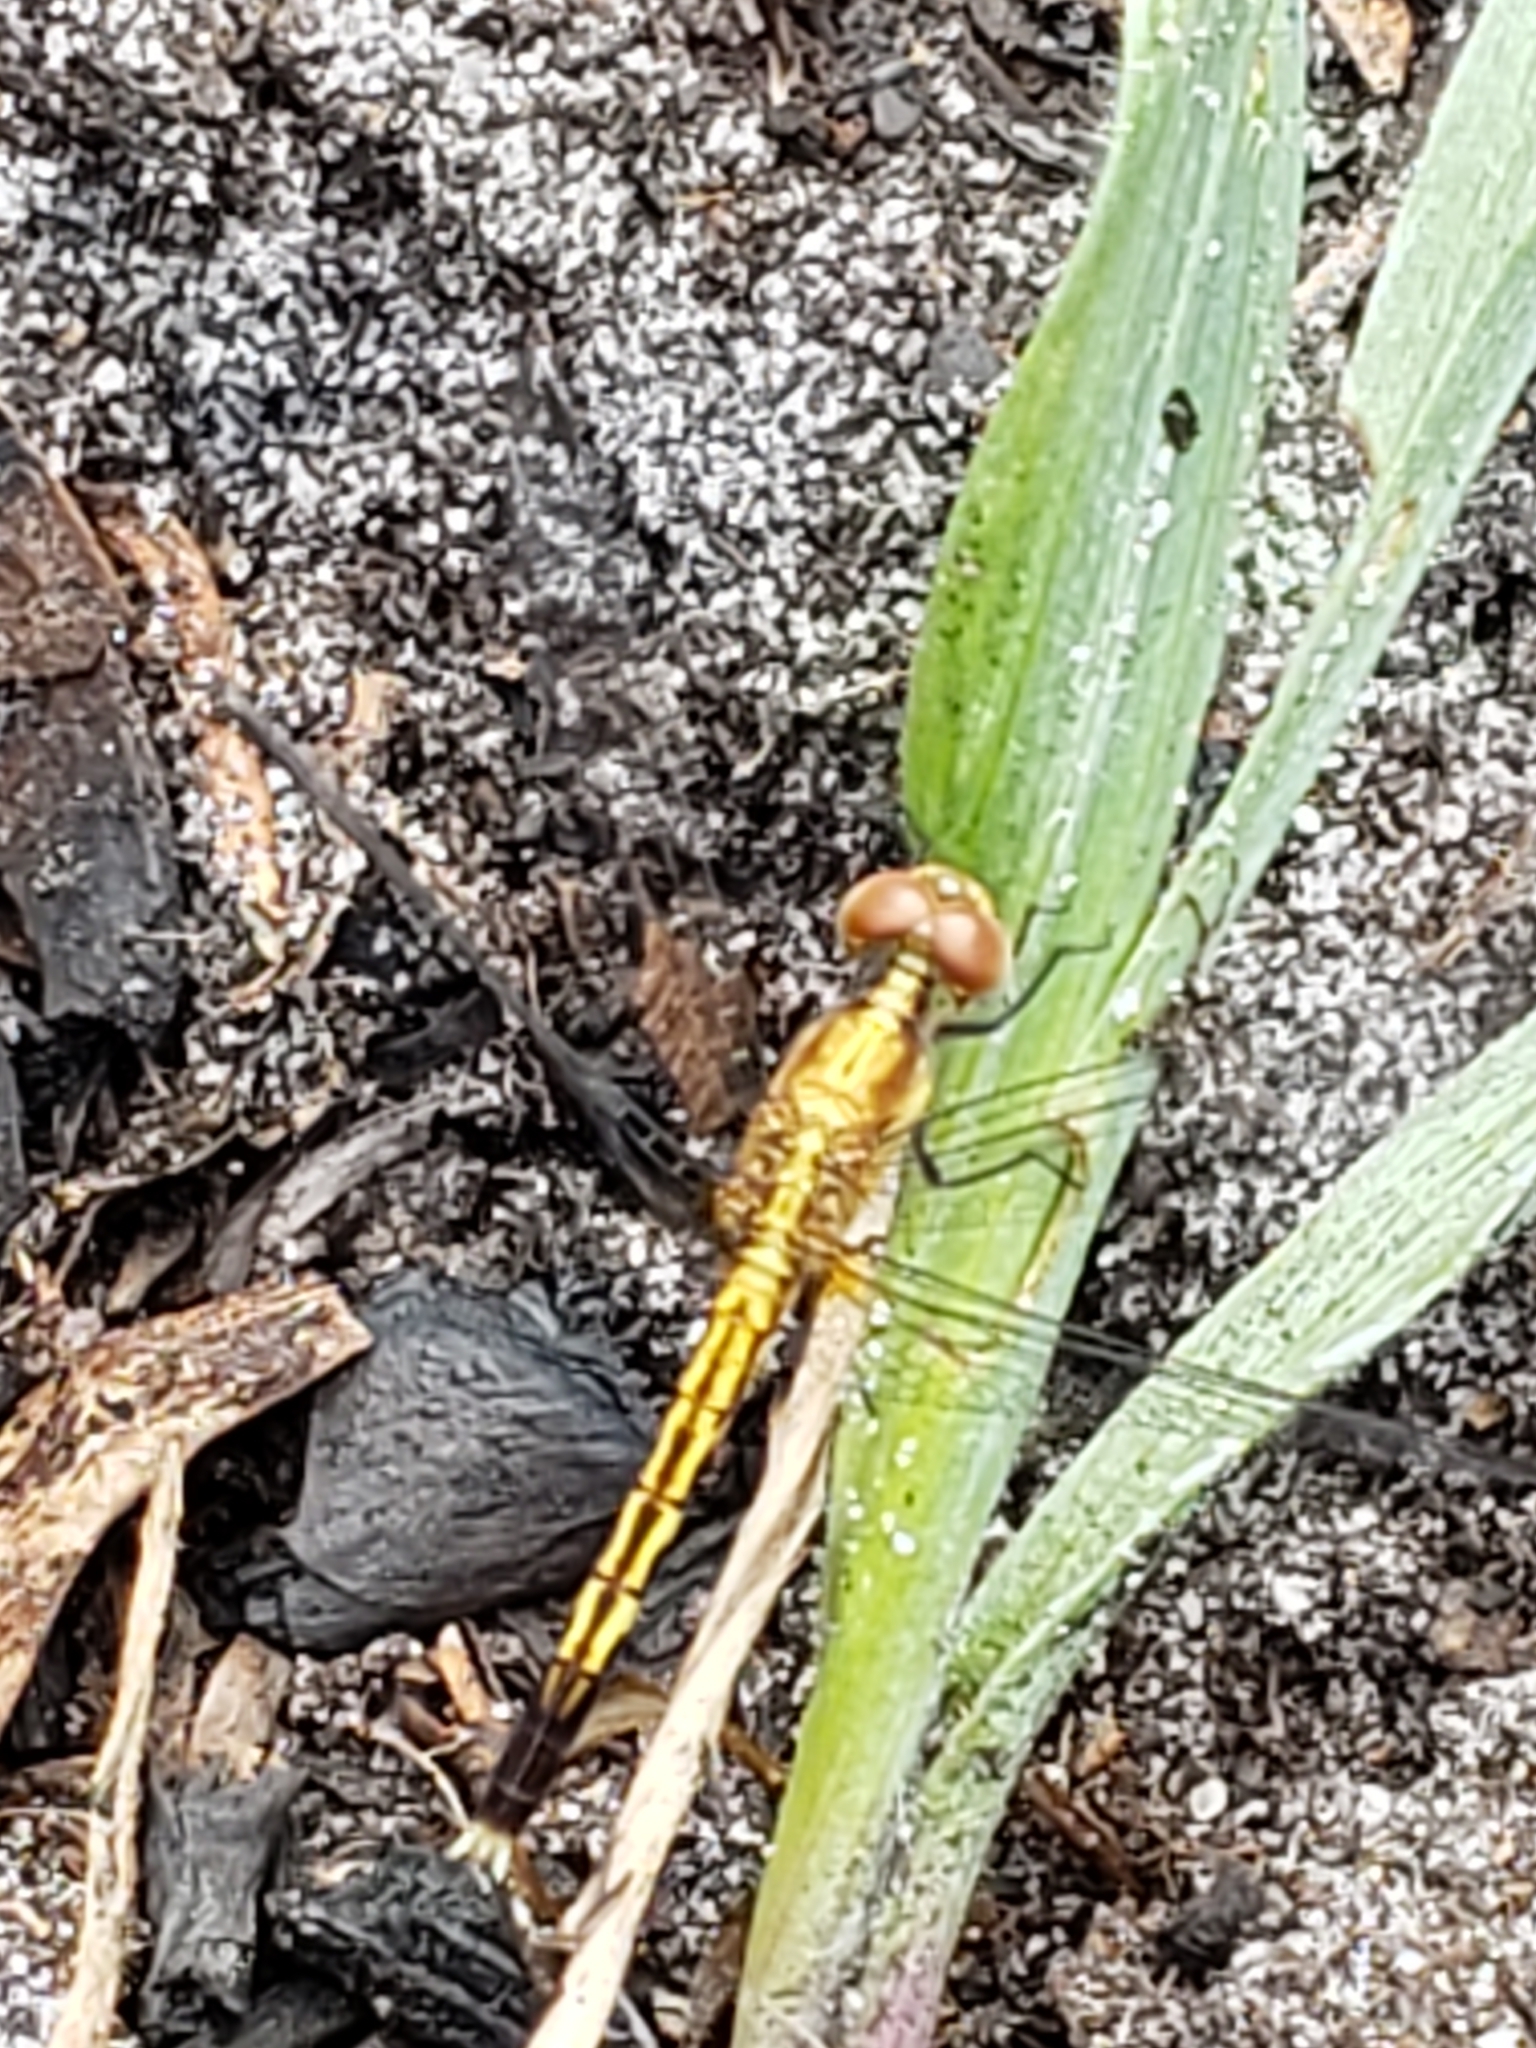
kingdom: Animalia
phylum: Arthropoda
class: Insecta
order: Odonata
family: Libellulidae
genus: Erythrodiplax
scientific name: Erythrodiplax minuscula
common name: Little blue dragonlet
